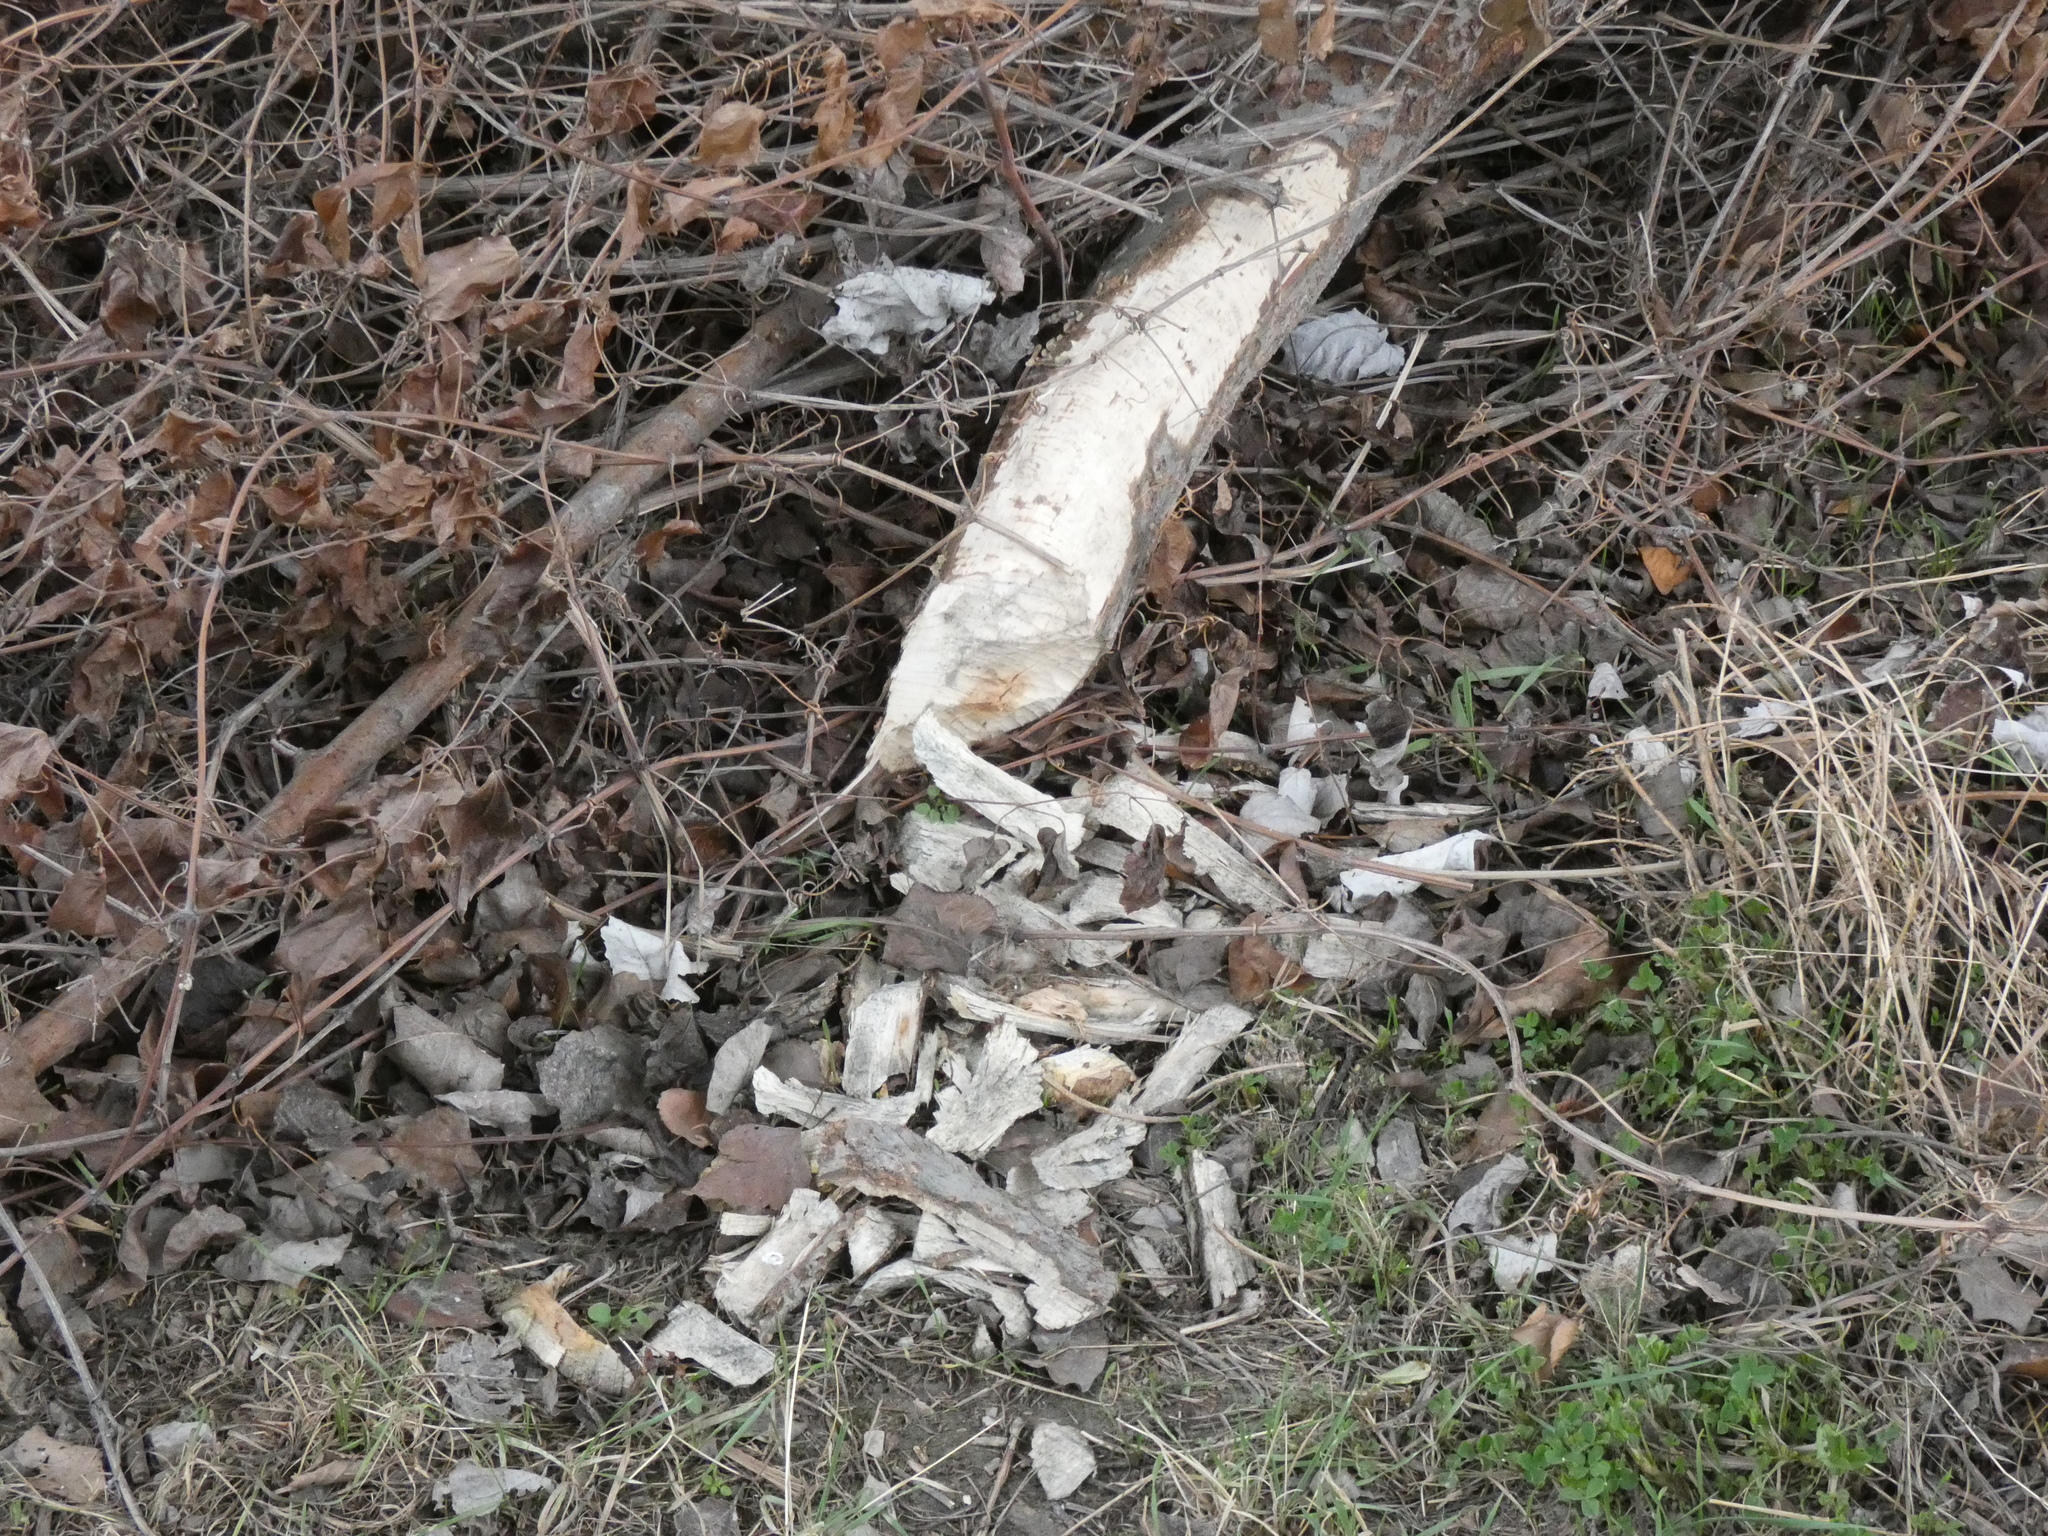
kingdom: Animalia
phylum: Chordata
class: Mammalia
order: Rodentia
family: Castoridae
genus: Castor
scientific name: Castor fiber
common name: Eurasian beaver
